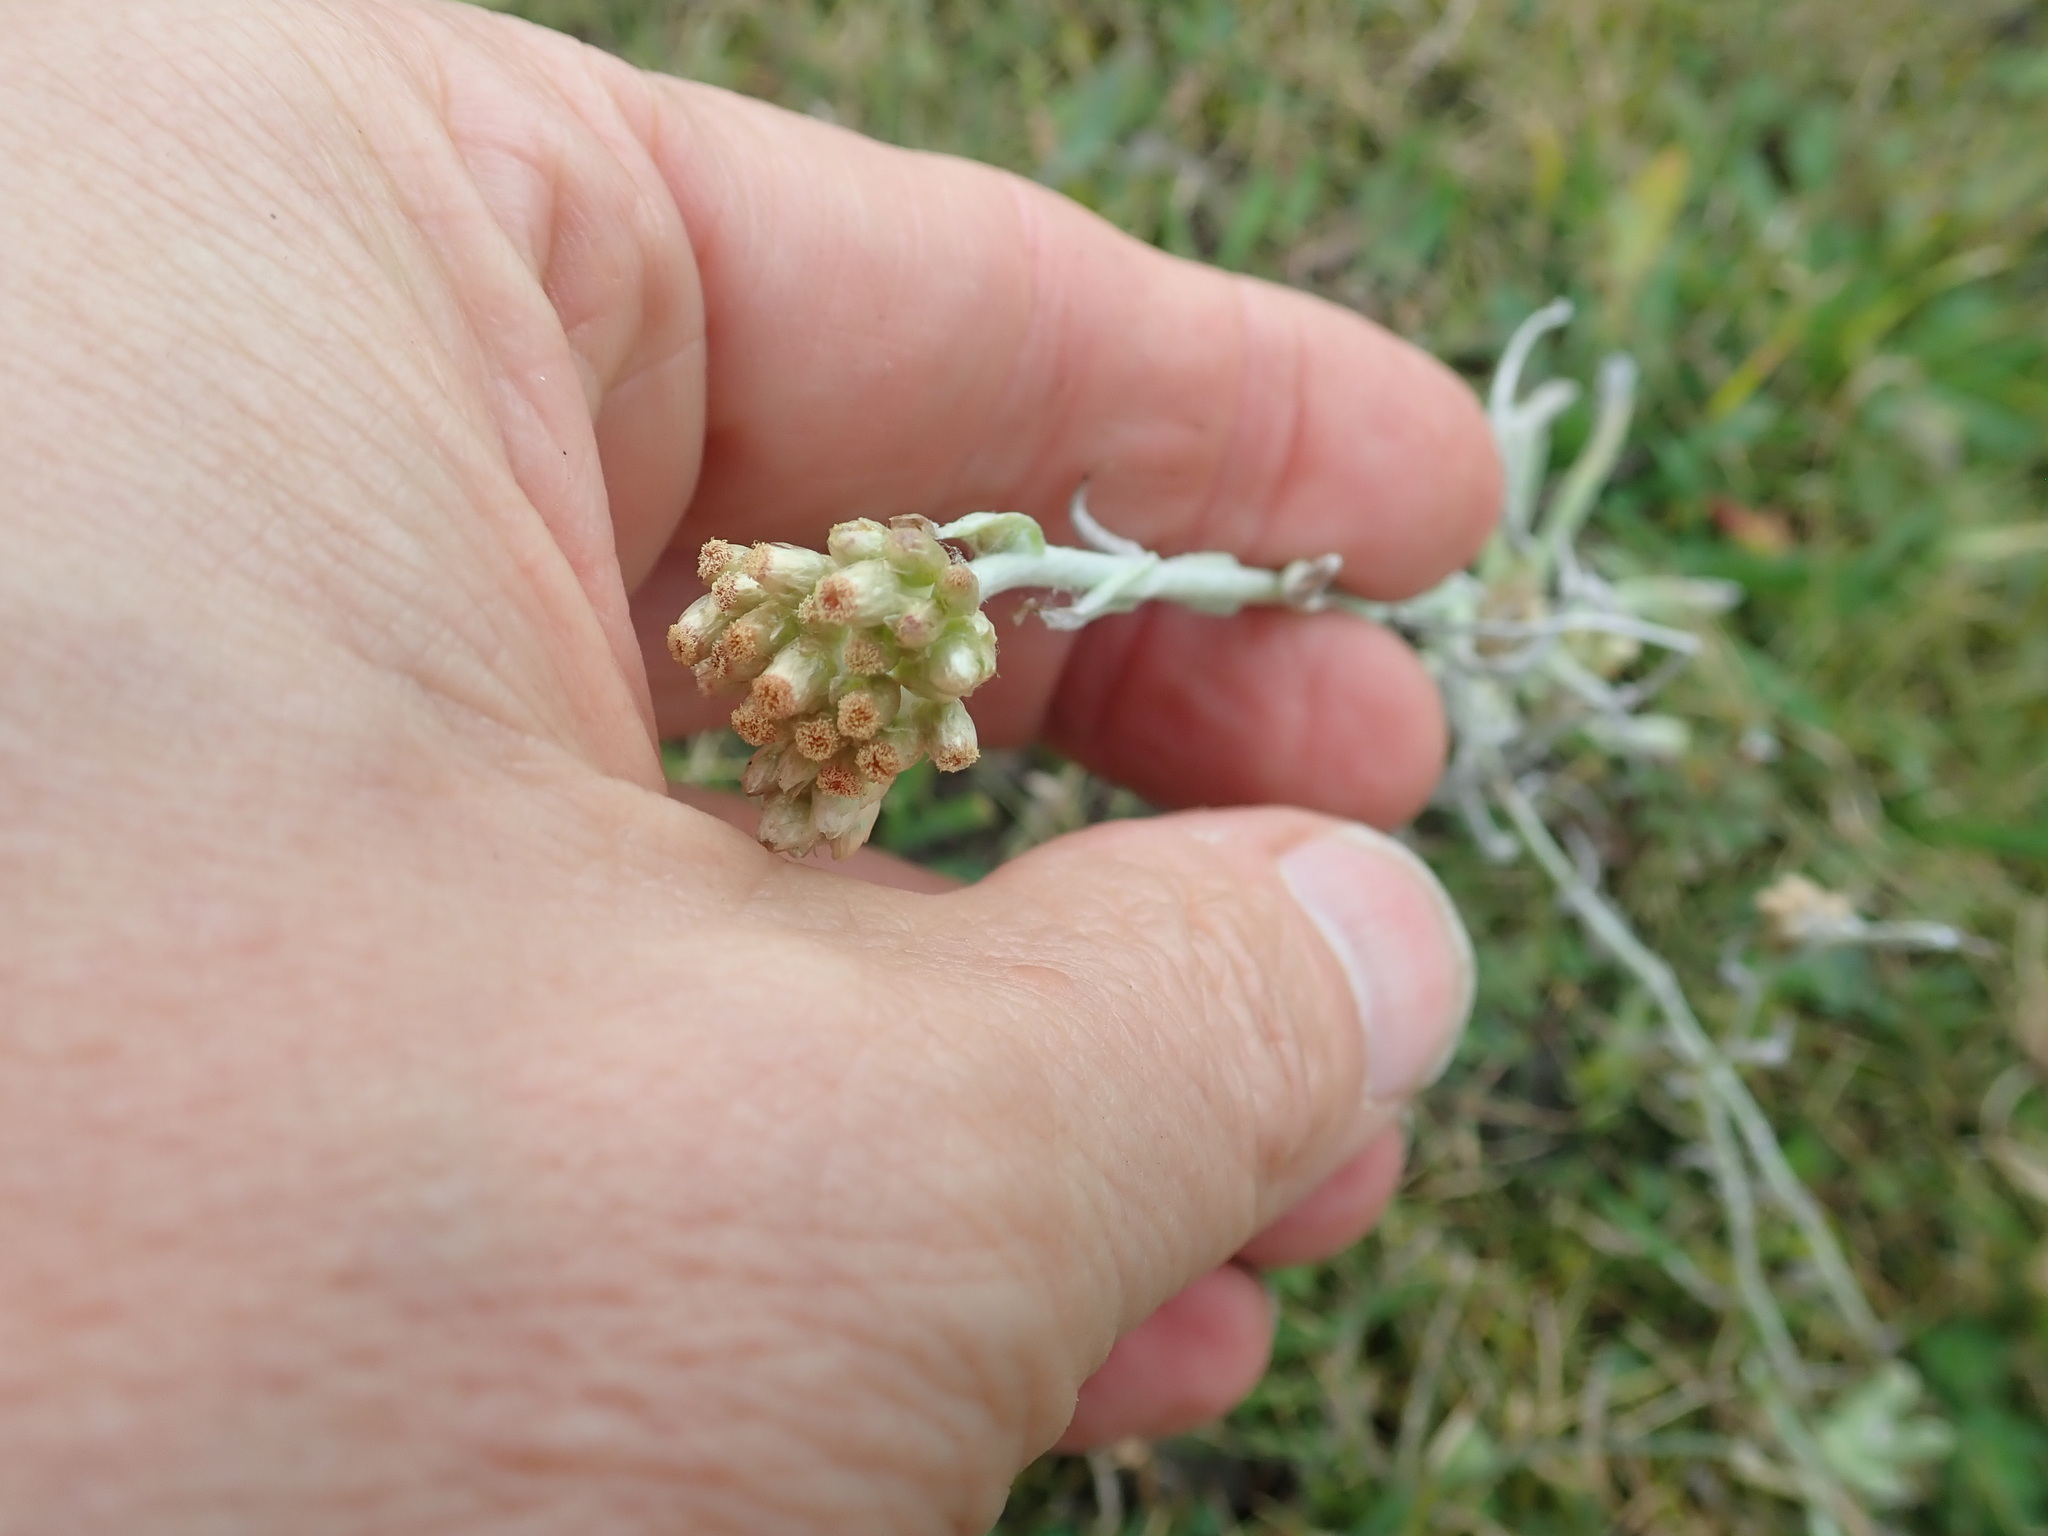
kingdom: Plantae
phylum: Tracheophyta
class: Magnoliopsida
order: Asterales
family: Asteraceae
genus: Helichrysum
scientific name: Helichrysum luteoalbum
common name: Daisy
